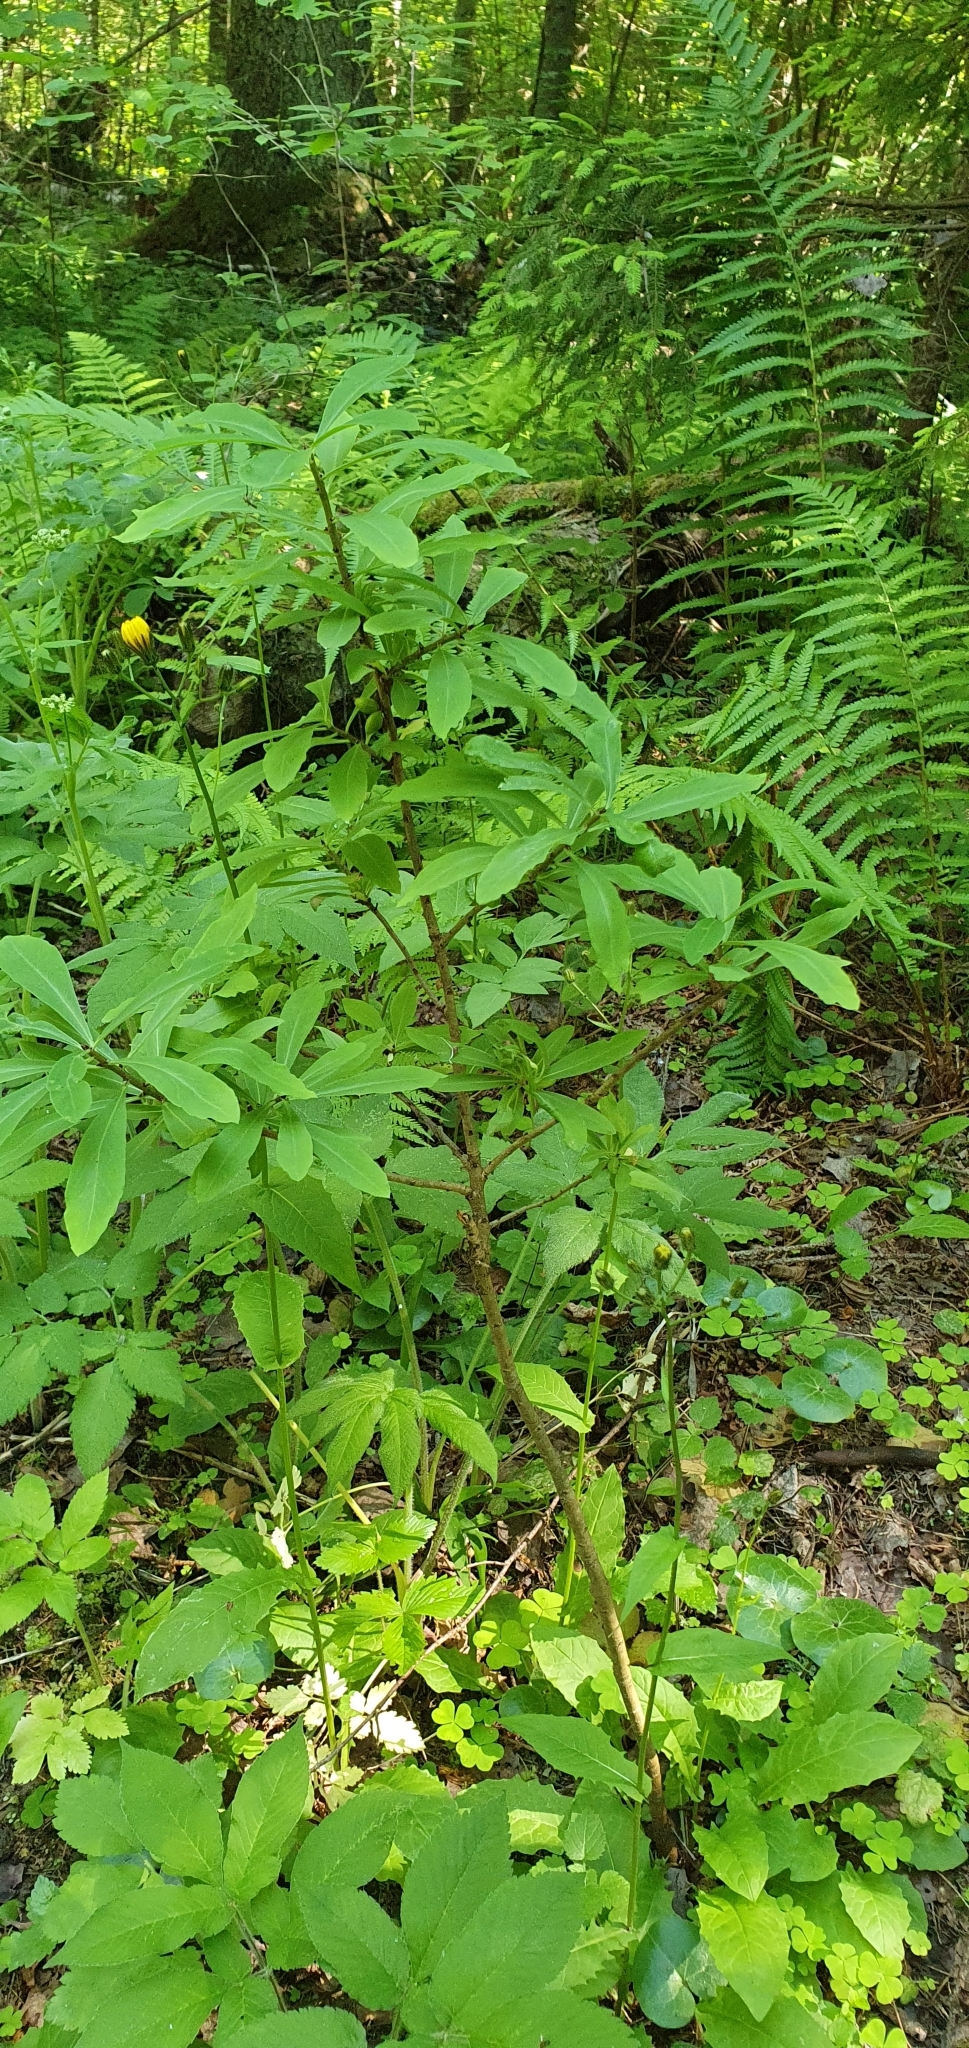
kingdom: Plantae
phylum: Tracheophyta
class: Magnoliopsida
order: Malvales
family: Thymelaeaceae
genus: Daphne
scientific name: Daphne mezereum
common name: Mezereon
